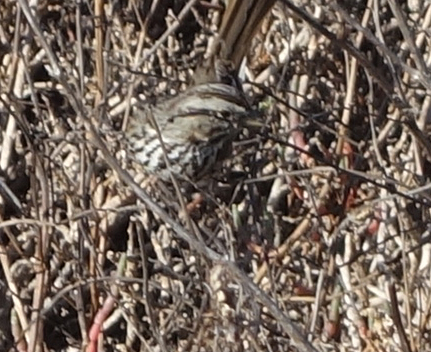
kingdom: Animalia
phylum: Chordata
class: Aves
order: Passeriformes
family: Passerellidae
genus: Melospiza
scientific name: Melospiza melodia
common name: Song sparrow
